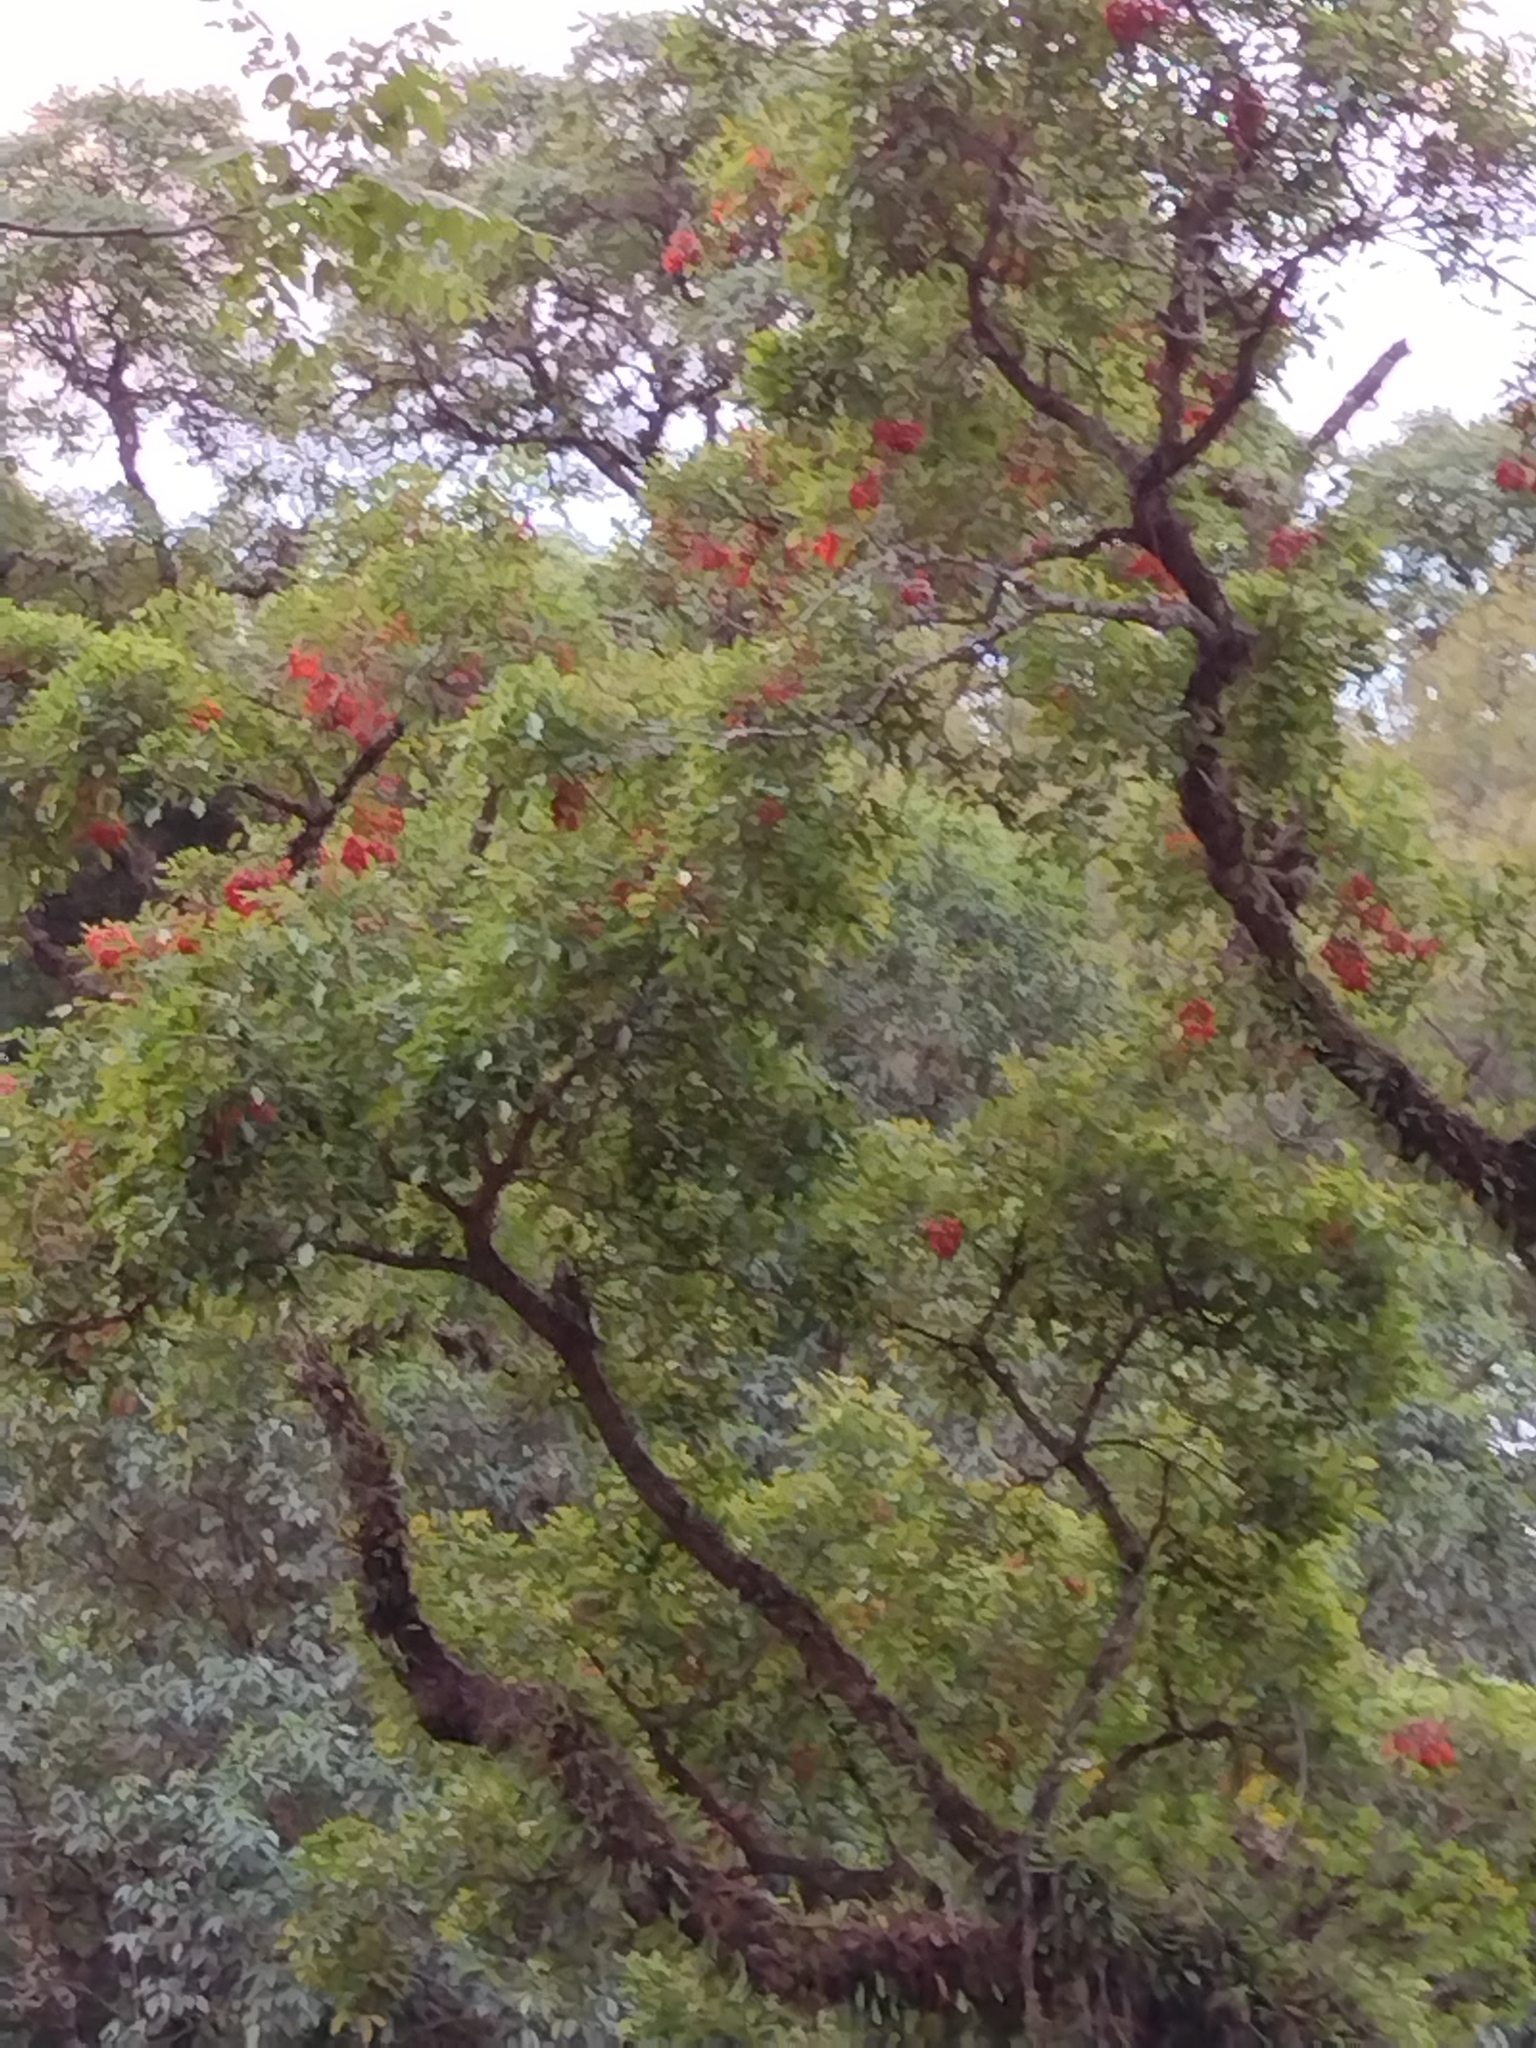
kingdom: Plantae
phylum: Tracheophyta
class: Magnoliopsida
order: Fabales
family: Fabaceae
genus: Erythrina
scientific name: Erythrina falcata
